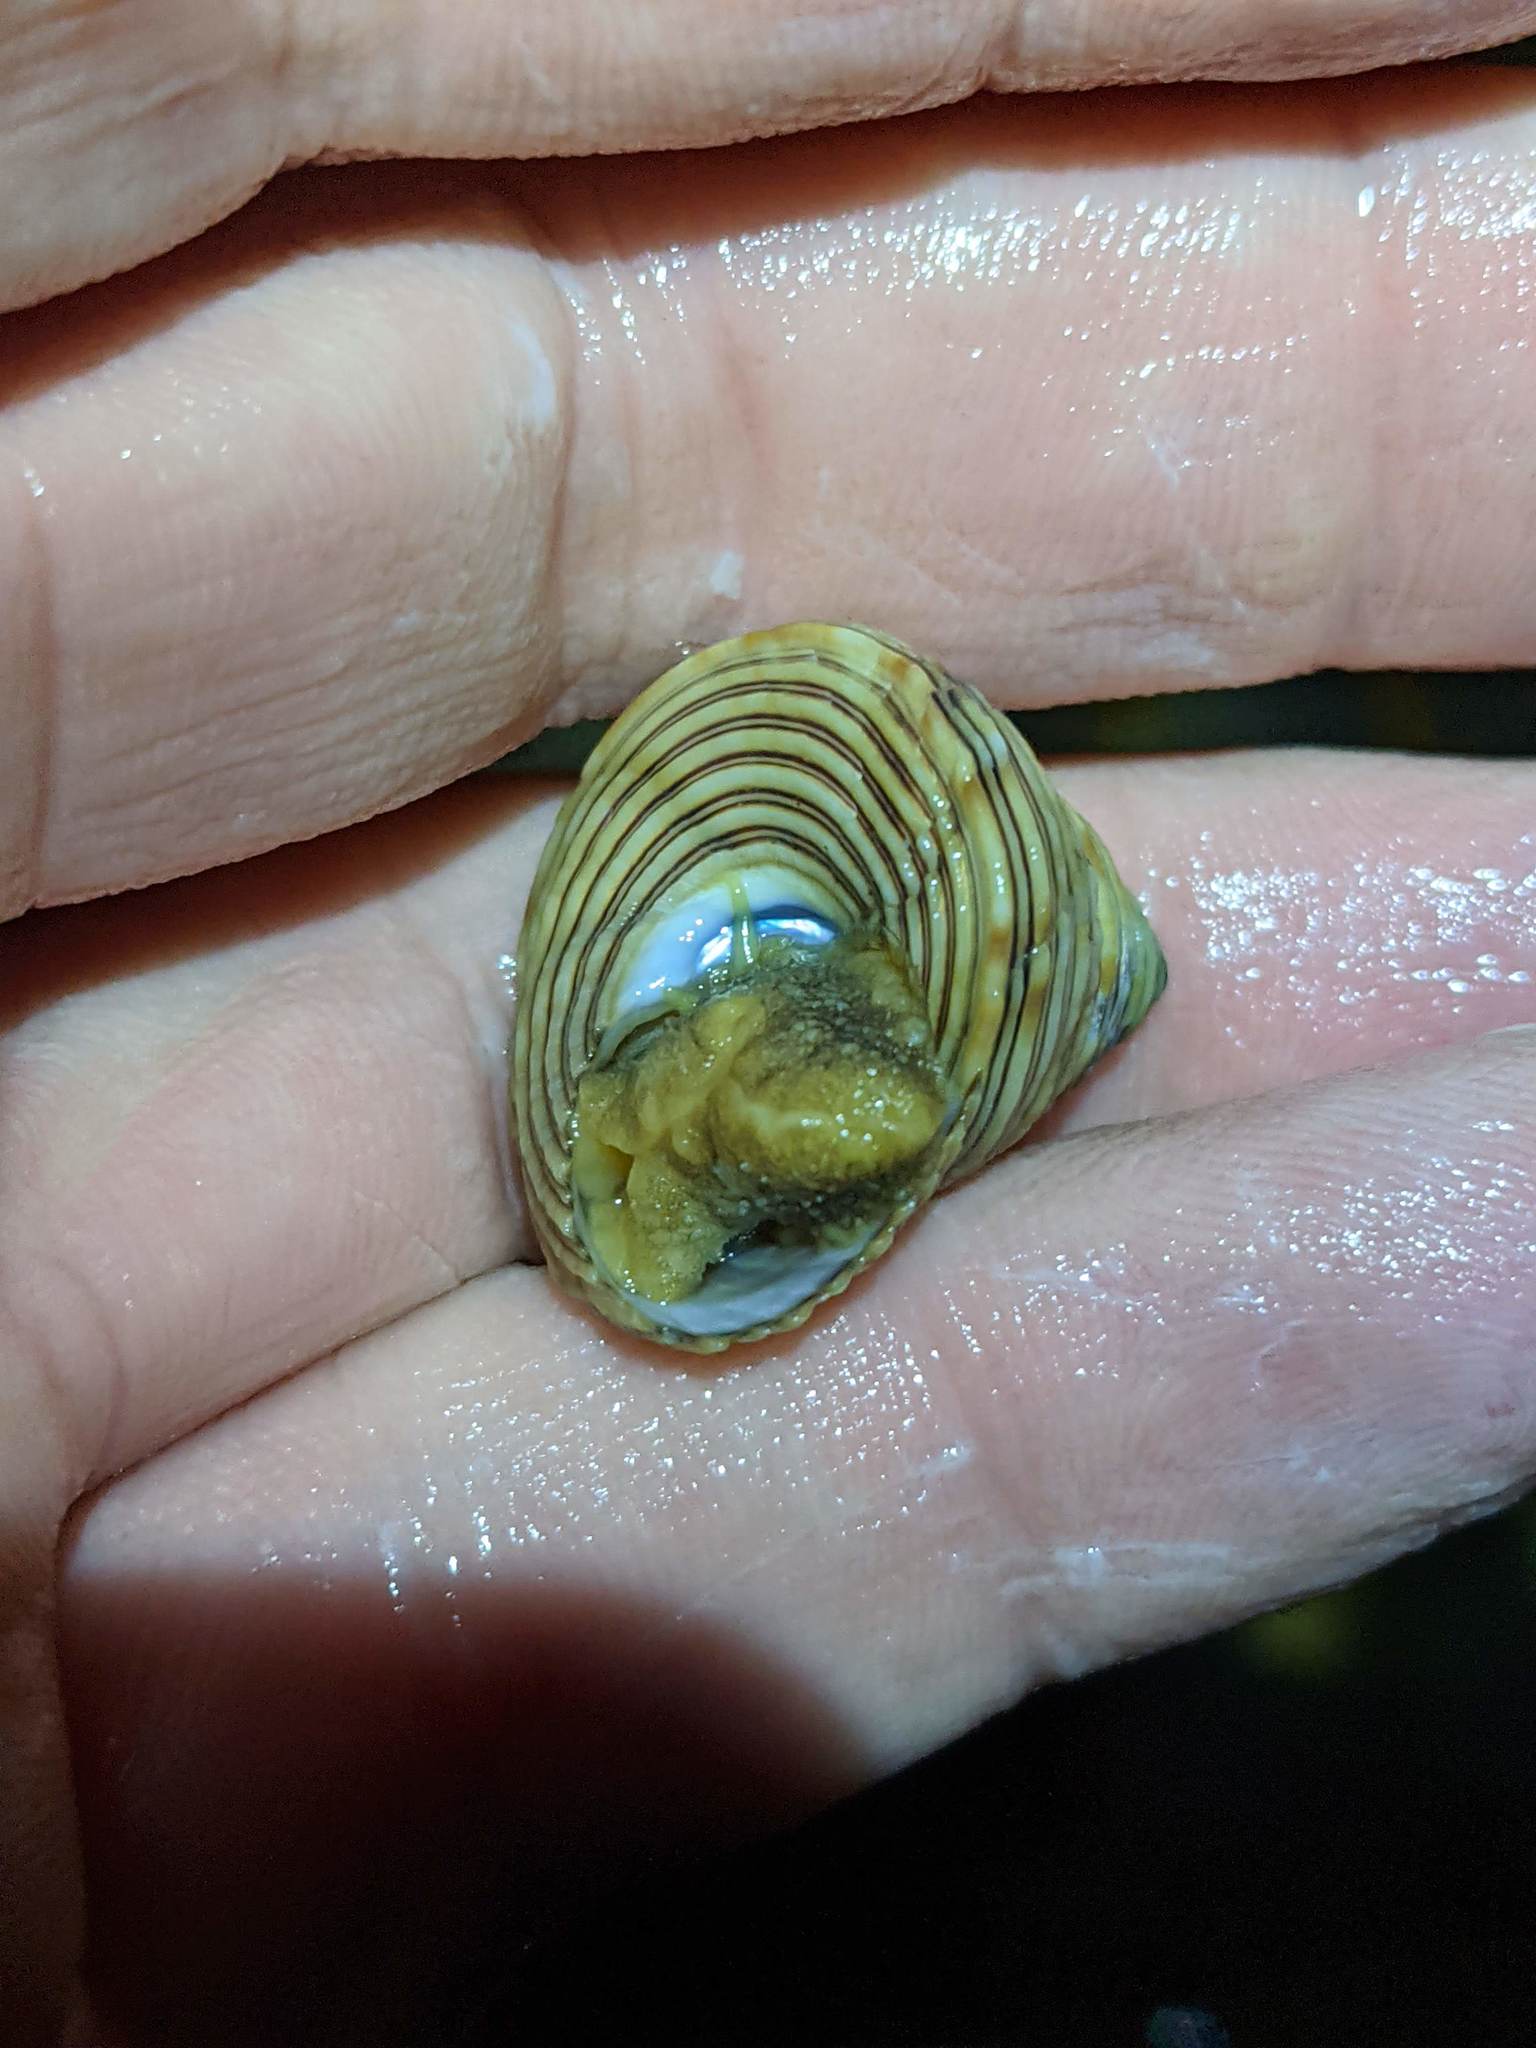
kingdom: Animalia
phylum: Mollusca
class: Gastropoda
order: Trochida
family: Calliostomatidae
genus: Calliostoma
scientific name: Calliostoma canaliculatum
